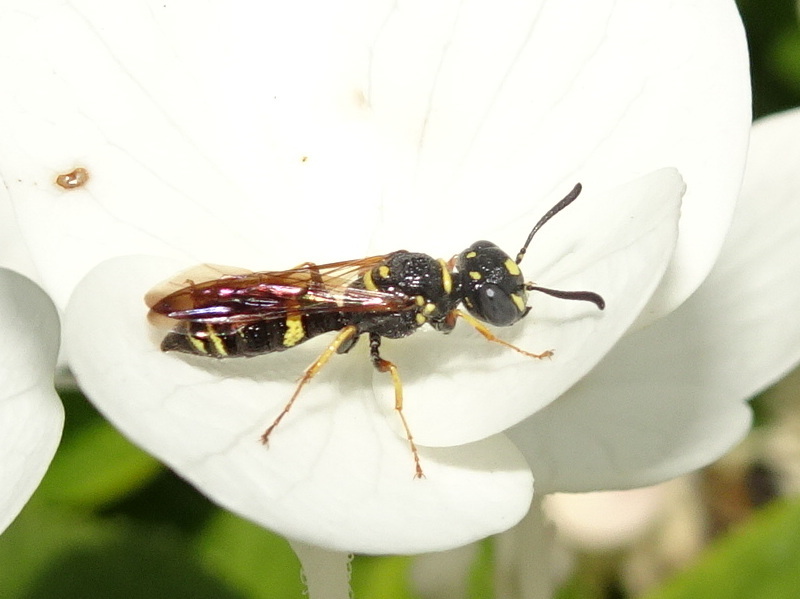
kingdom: Animalia
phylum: Arthropoda
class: Insecta
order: Hymenoptera
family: Crabronidae
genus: Philanthus
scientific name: Philanthus gibbosus
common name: Humped beewolf
